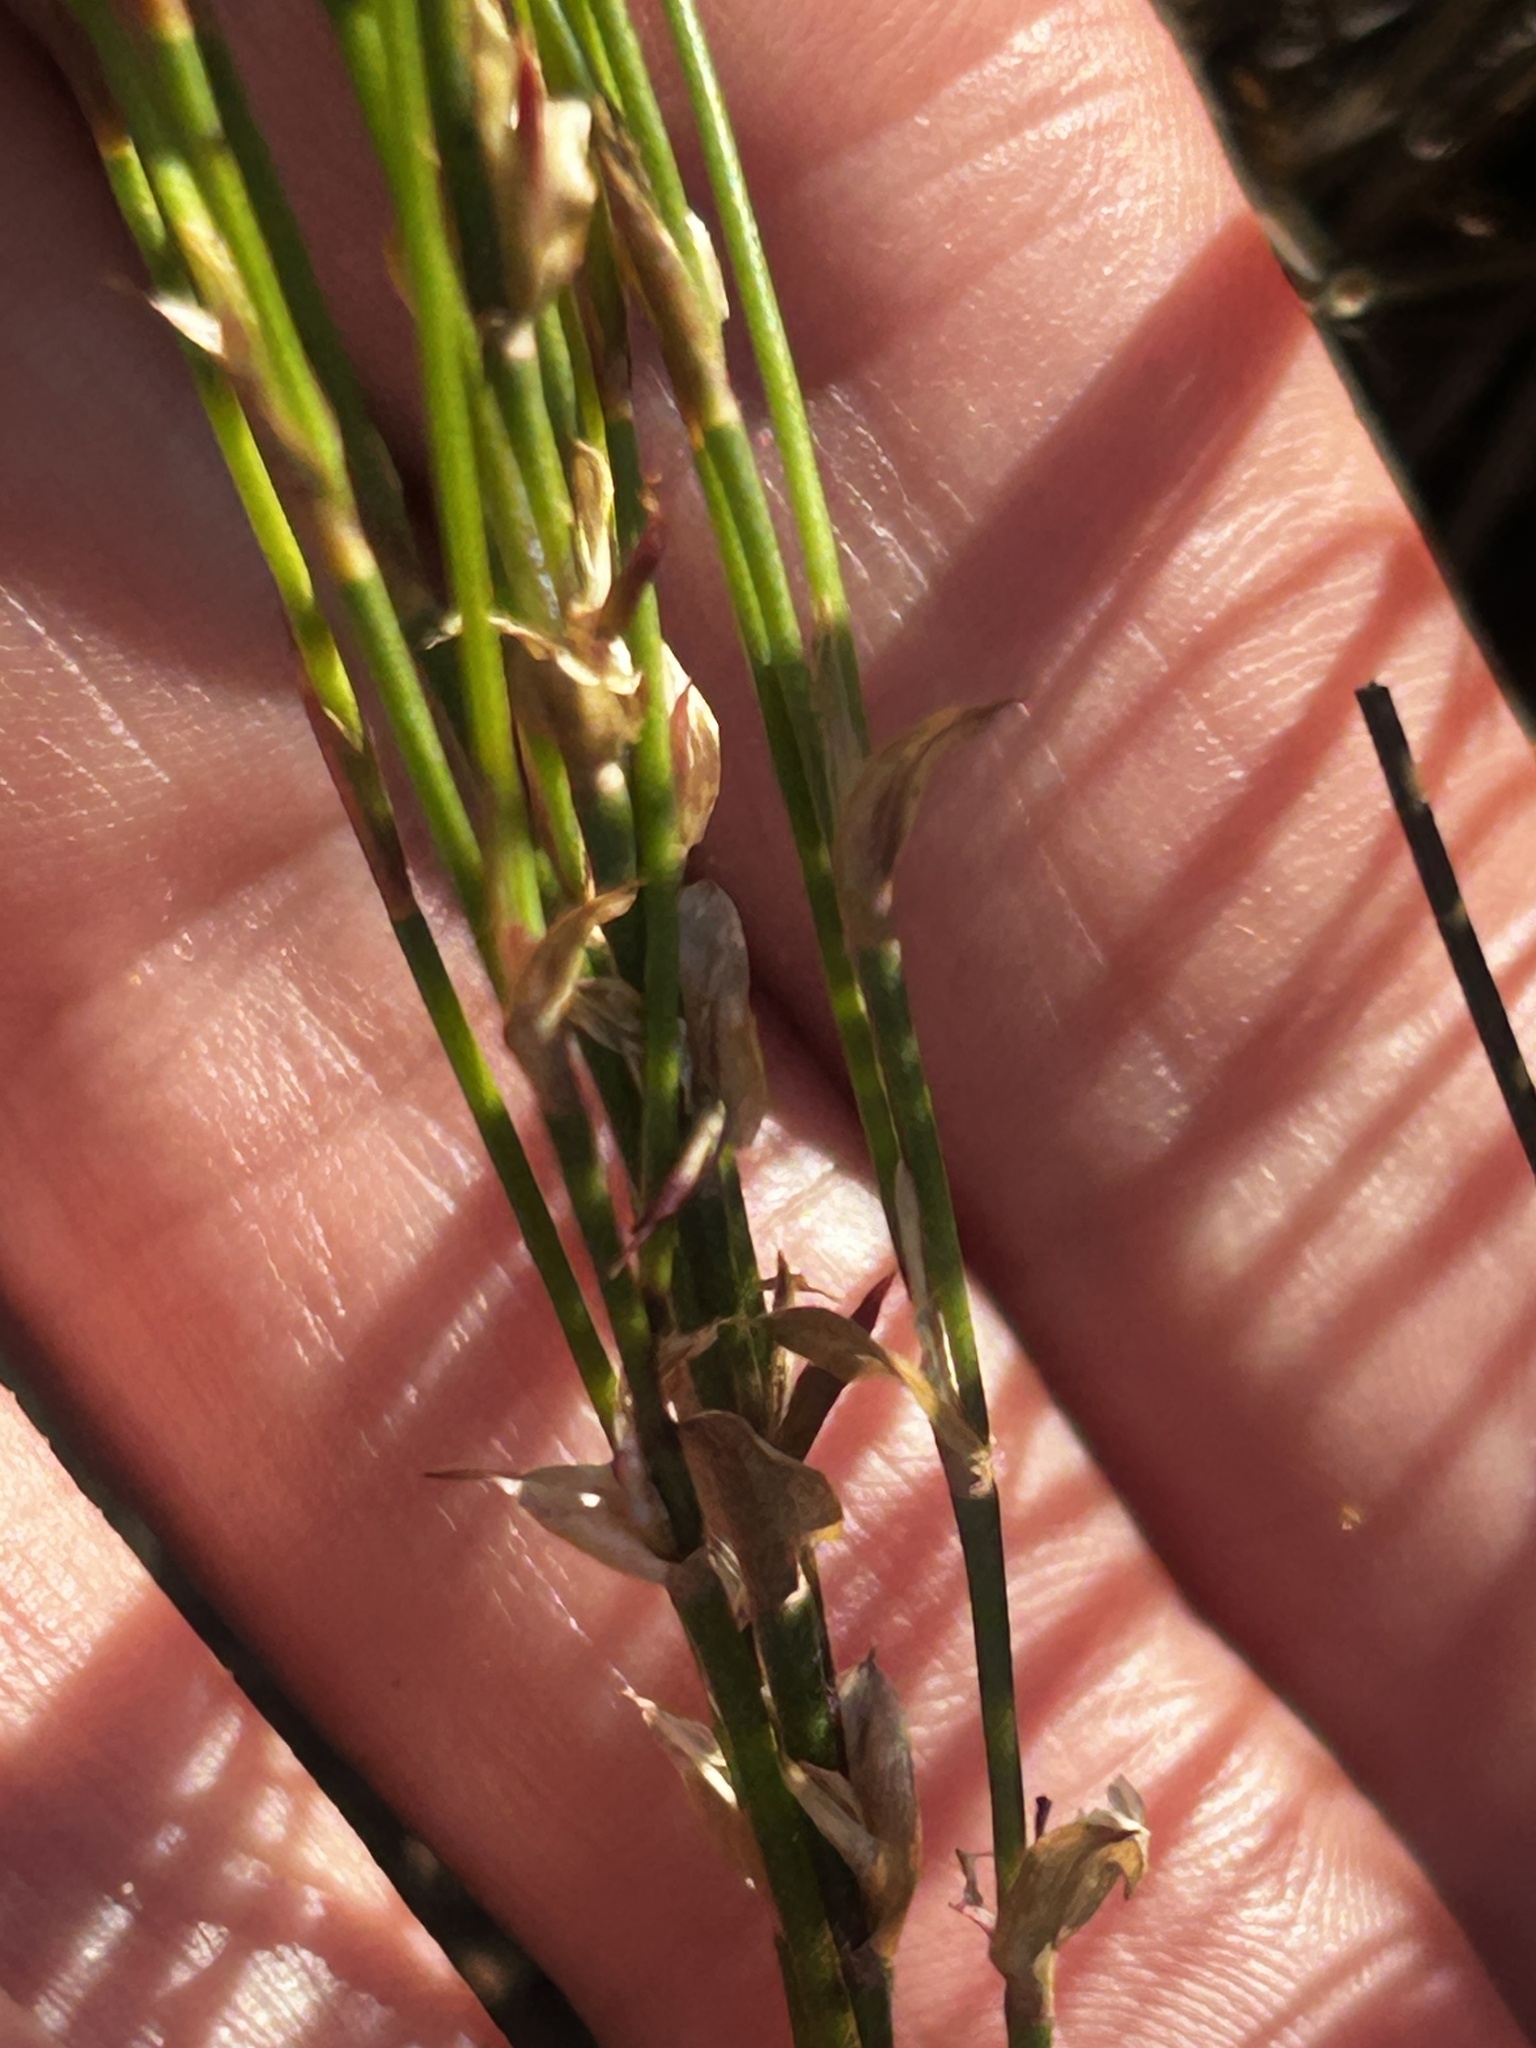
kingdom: Plantae
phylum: Tracheophyta
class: Liliopsida
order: Poales
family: Restionaceae
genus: Elegia
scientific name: Elegia microcarpa
